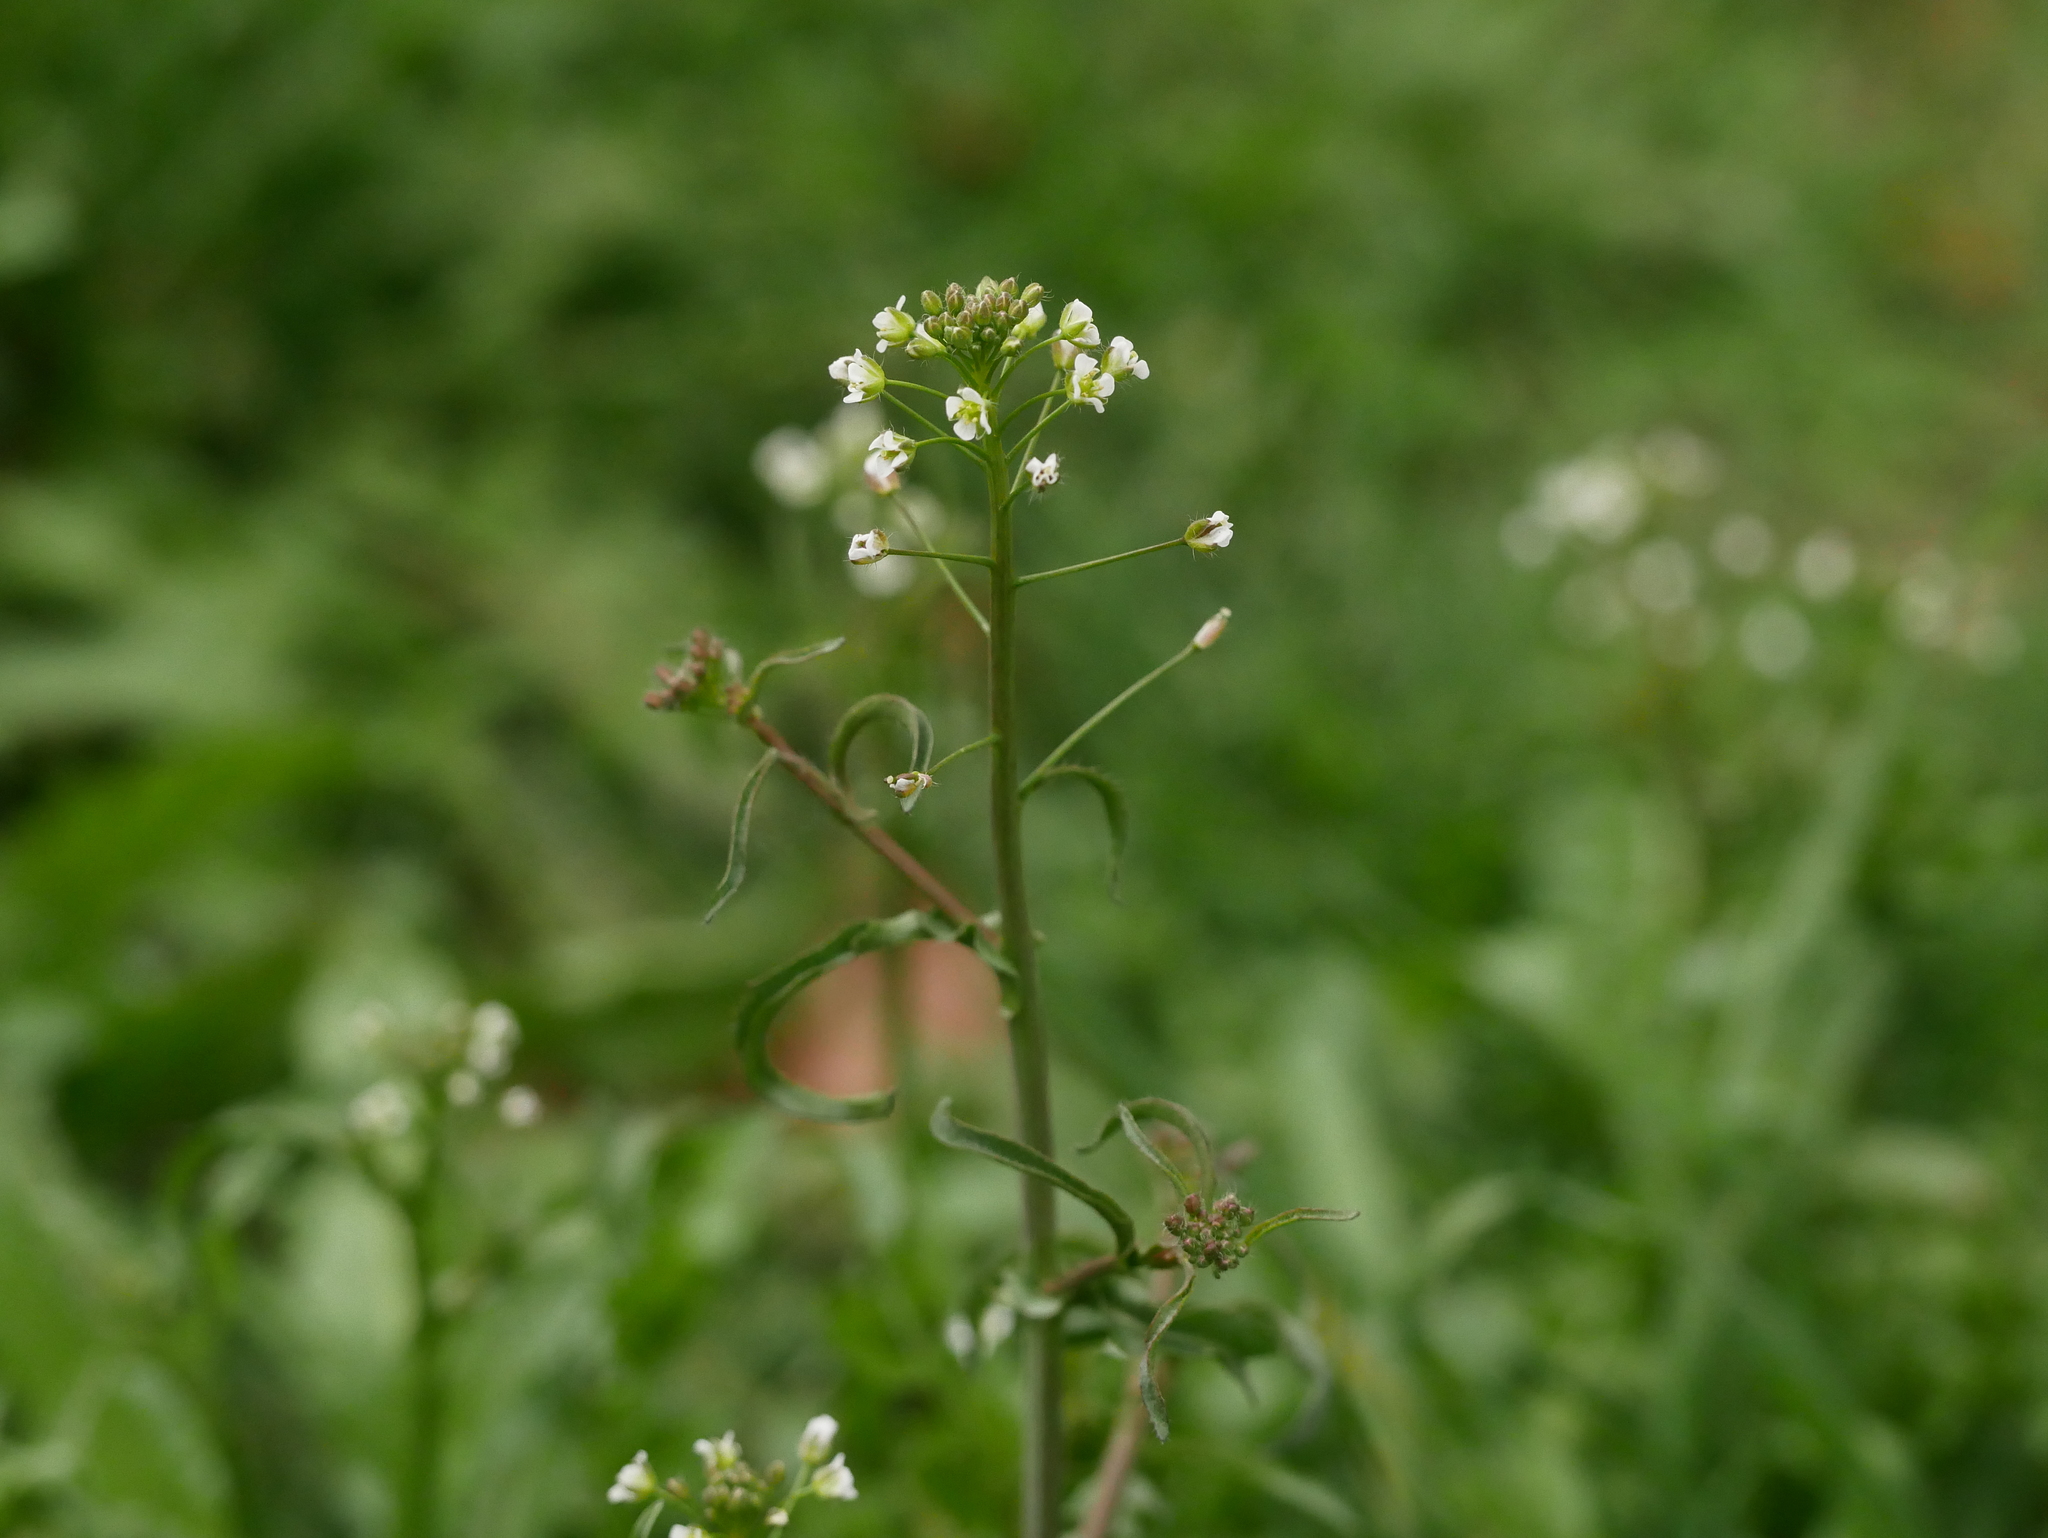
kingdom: Plantae
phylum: Tracheophyta
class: Magnoliopsida
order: Brassicales
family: Brassicaceae
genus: Capsella
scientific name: Capsella bursa-pastoris
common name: Shepherd's purse
